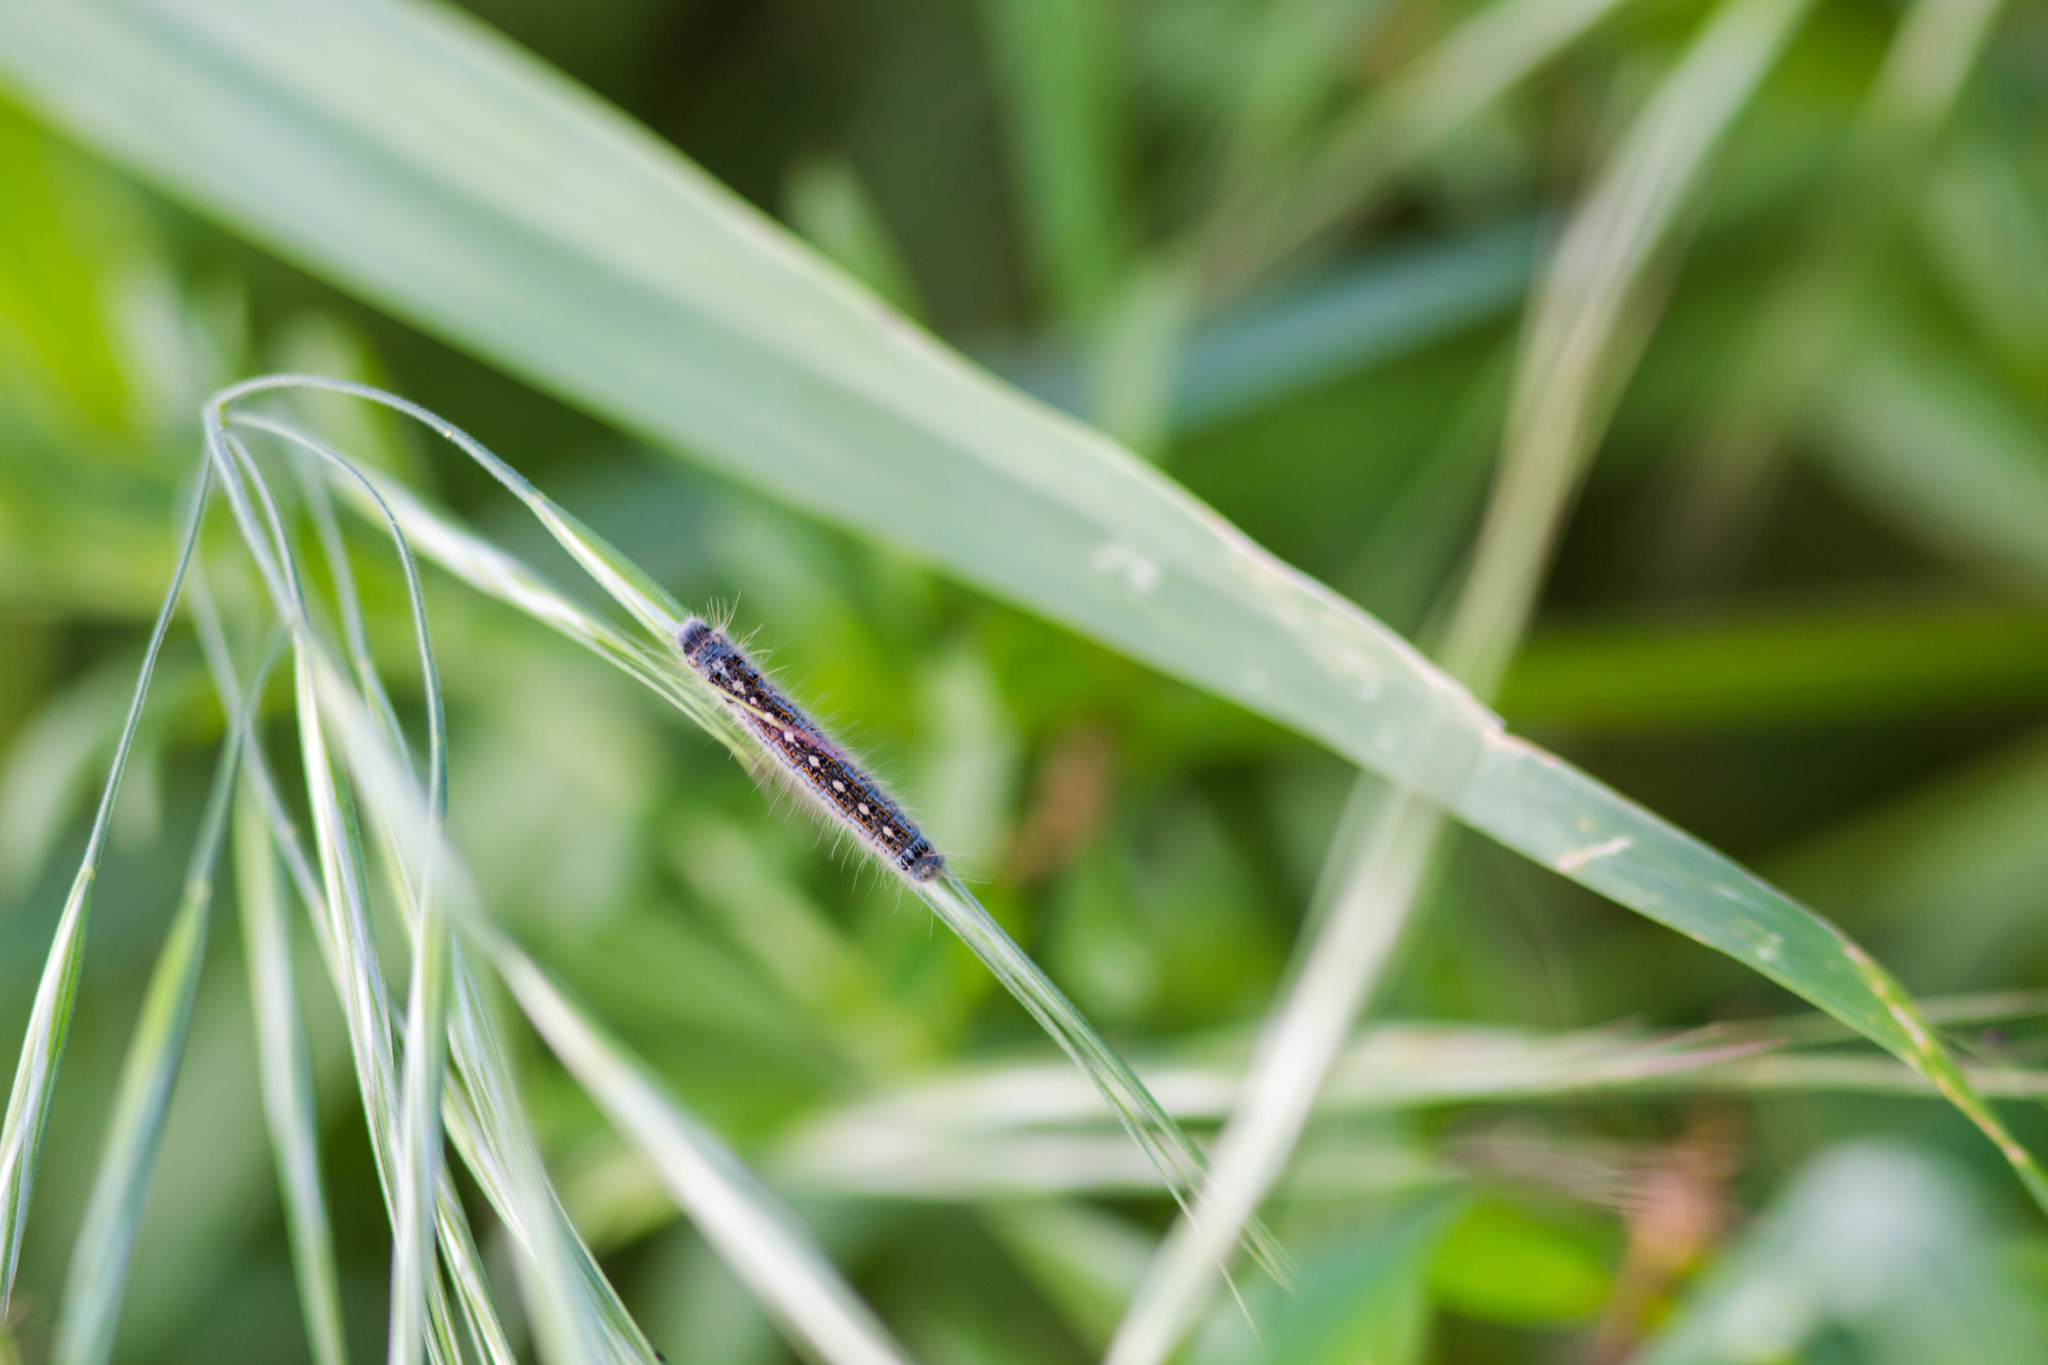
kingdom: Animalia
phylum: Arthropoda
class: Insecta
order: Lepidoptera
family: Lasiocampidae
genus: Malacosoma
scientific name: Malacosoma disstria
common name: Forest tent caterpillar
